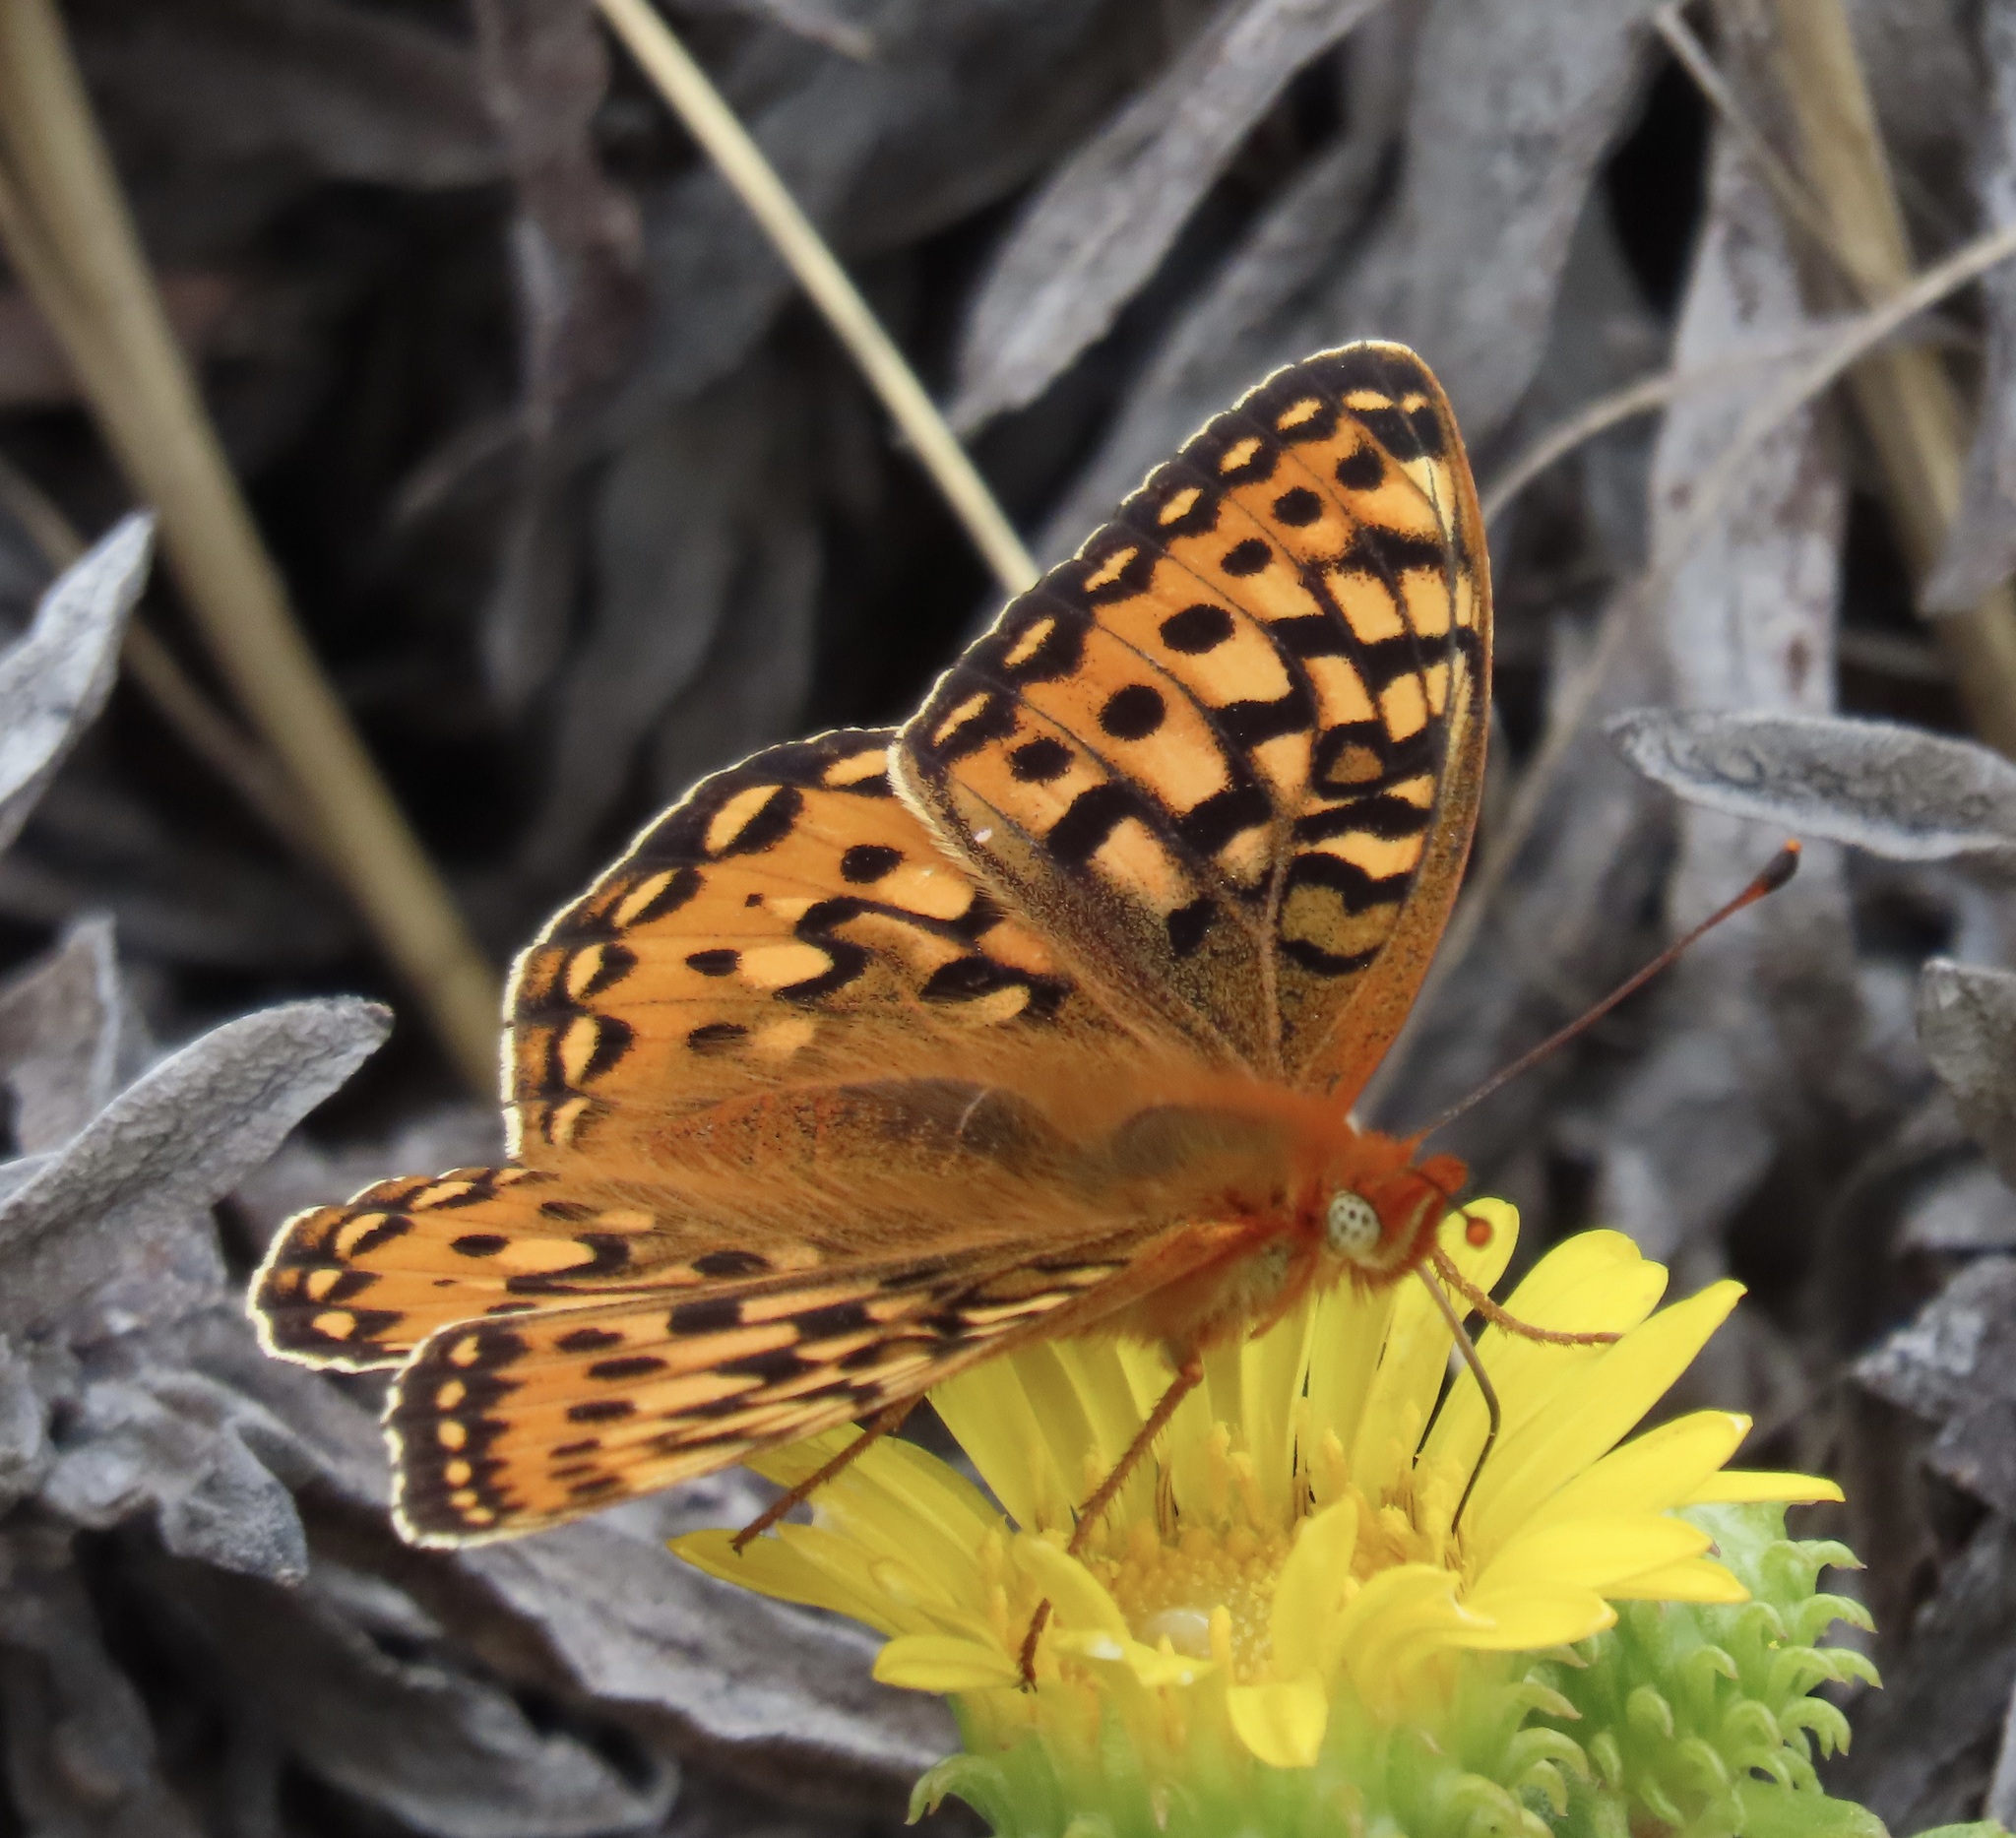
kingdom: Animalia
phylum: Arthropoda
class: Insecta
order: Lepidoptera
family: Nymphalidae
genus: Speyeria
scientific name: Speyeria zerene
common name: Zerene fritillary
